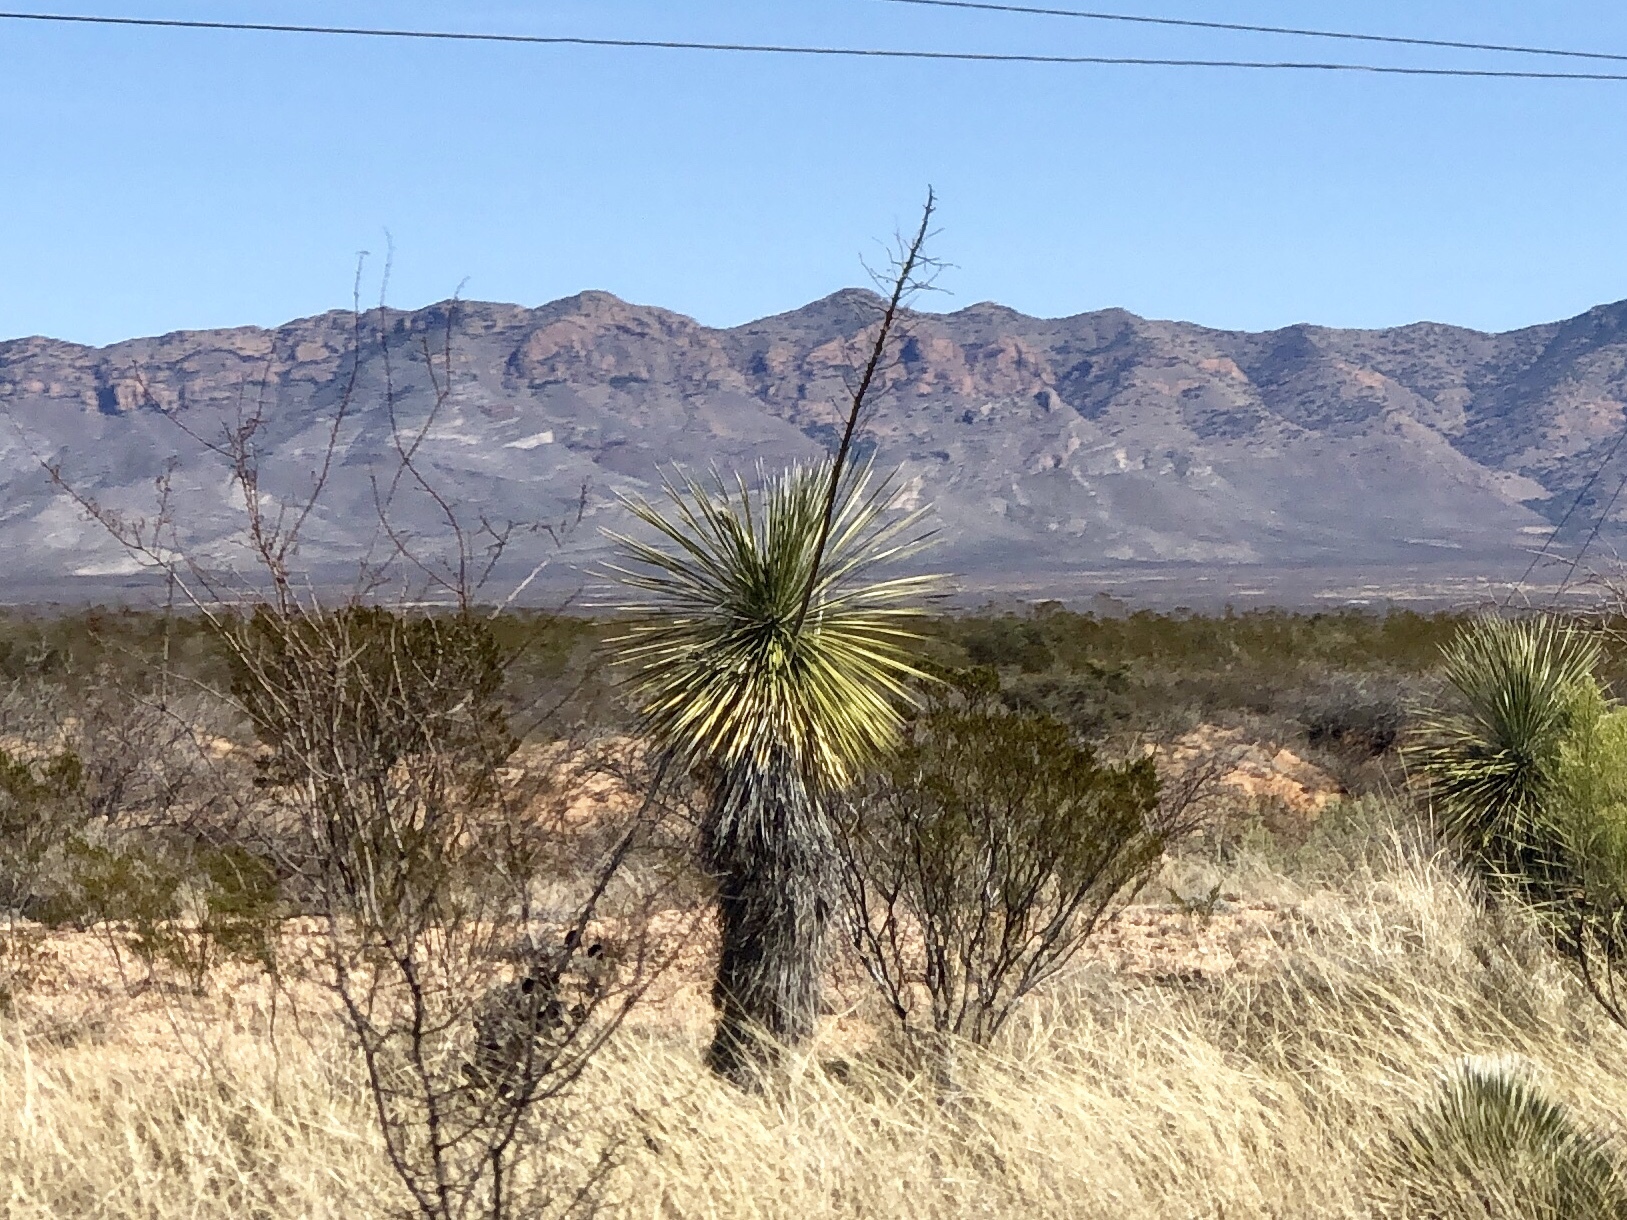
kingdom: Plantae
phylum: Tracheophyta
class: Liliopsida
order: Asparagales
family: Asparagaceae
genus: Yucca
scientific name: Yucca elata
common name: Palmella
